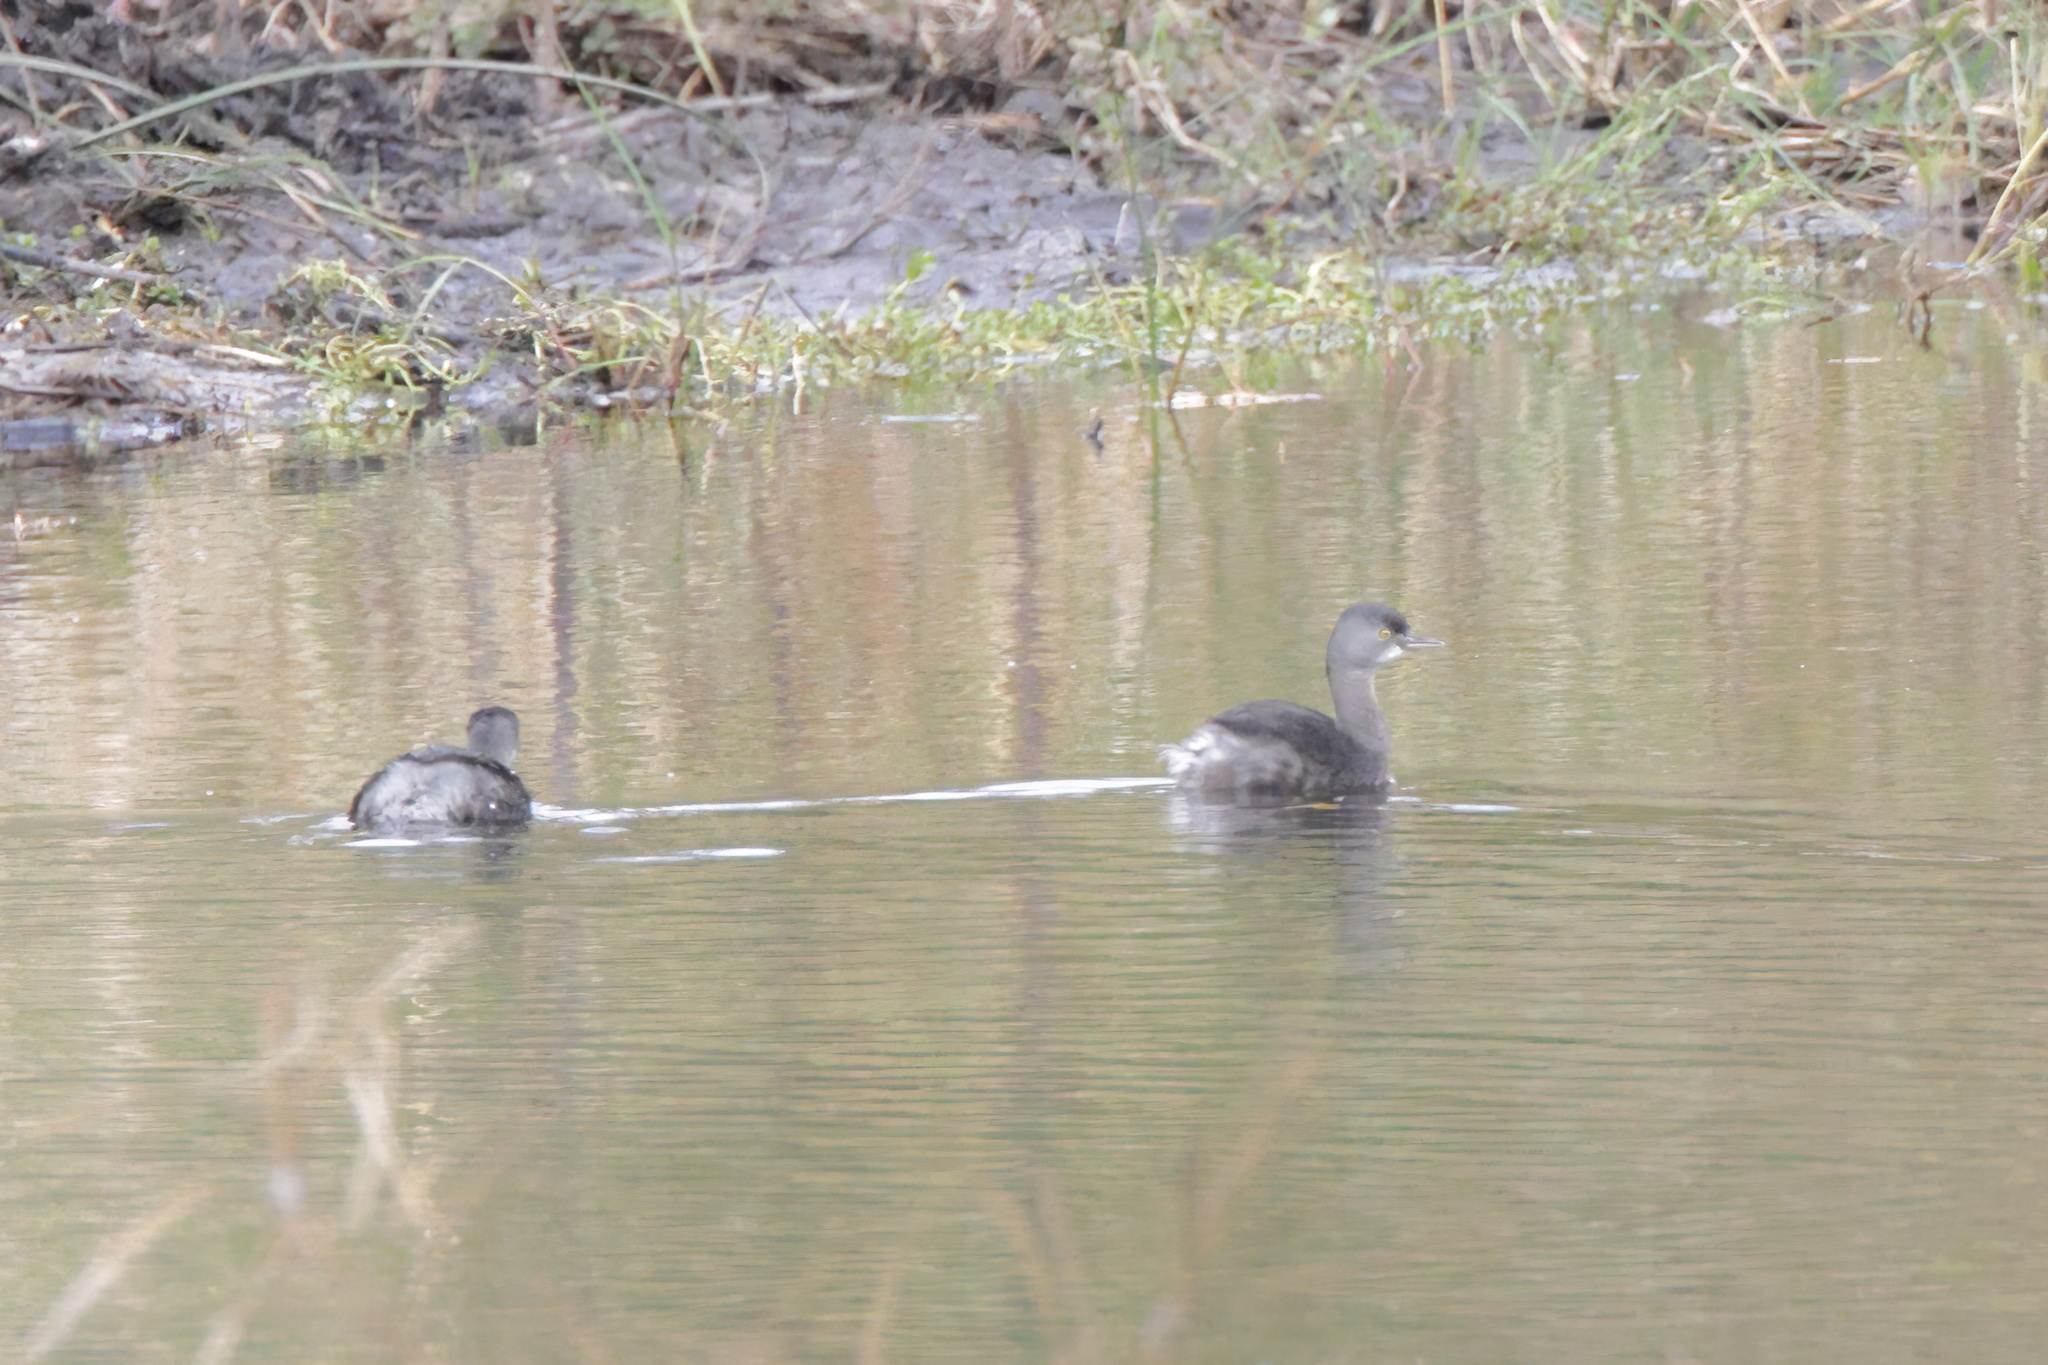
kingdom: Animalia
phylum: Chordata
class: Aves
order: Podicipediformes
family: Podicipedidae
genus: Tachybaptus
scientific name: Tachybaptus dominicus
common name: Least grebe
